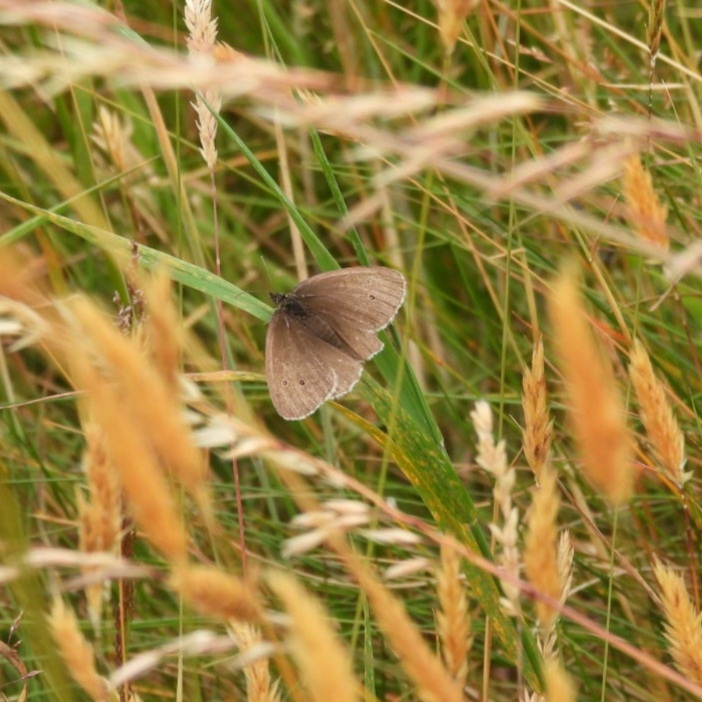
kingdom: Animalia
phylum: Arthropoda
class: Insecta
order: Lepidoptera
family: Nymphalidae
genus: Aphantopus
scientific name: Aphantopus hyperantus
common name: Ringlet
